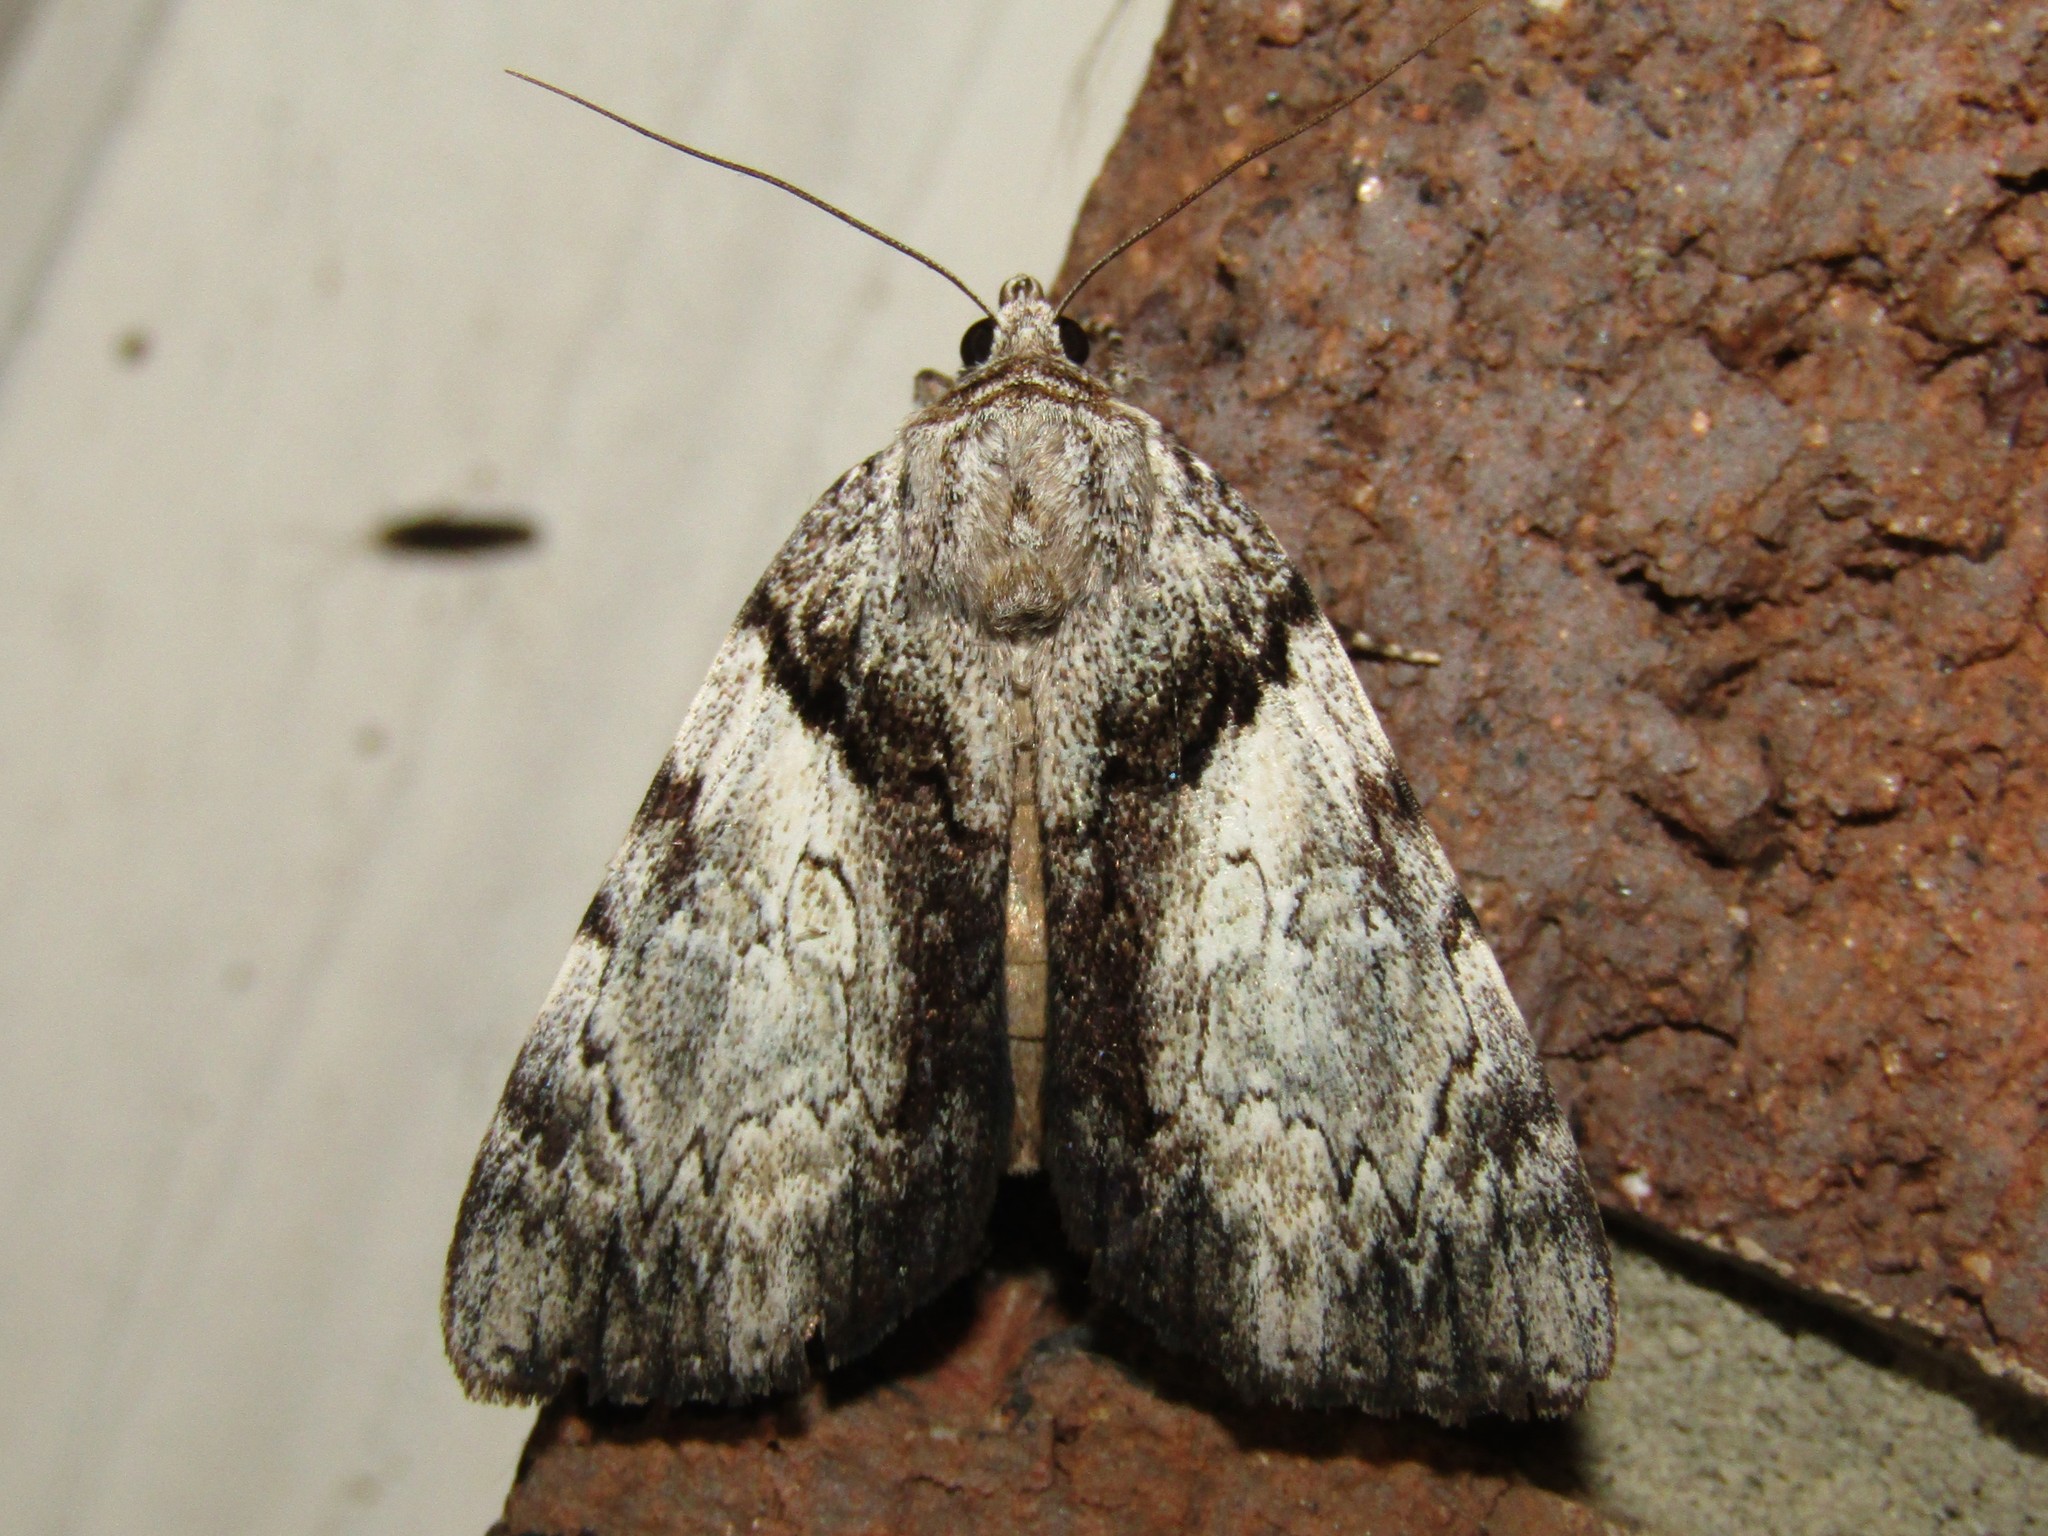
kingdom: Animalia
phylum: Arthropoda
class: Insecta
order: Lepidoptera
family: Erebidae
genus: Catocala
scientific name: Catocala lincolnana
